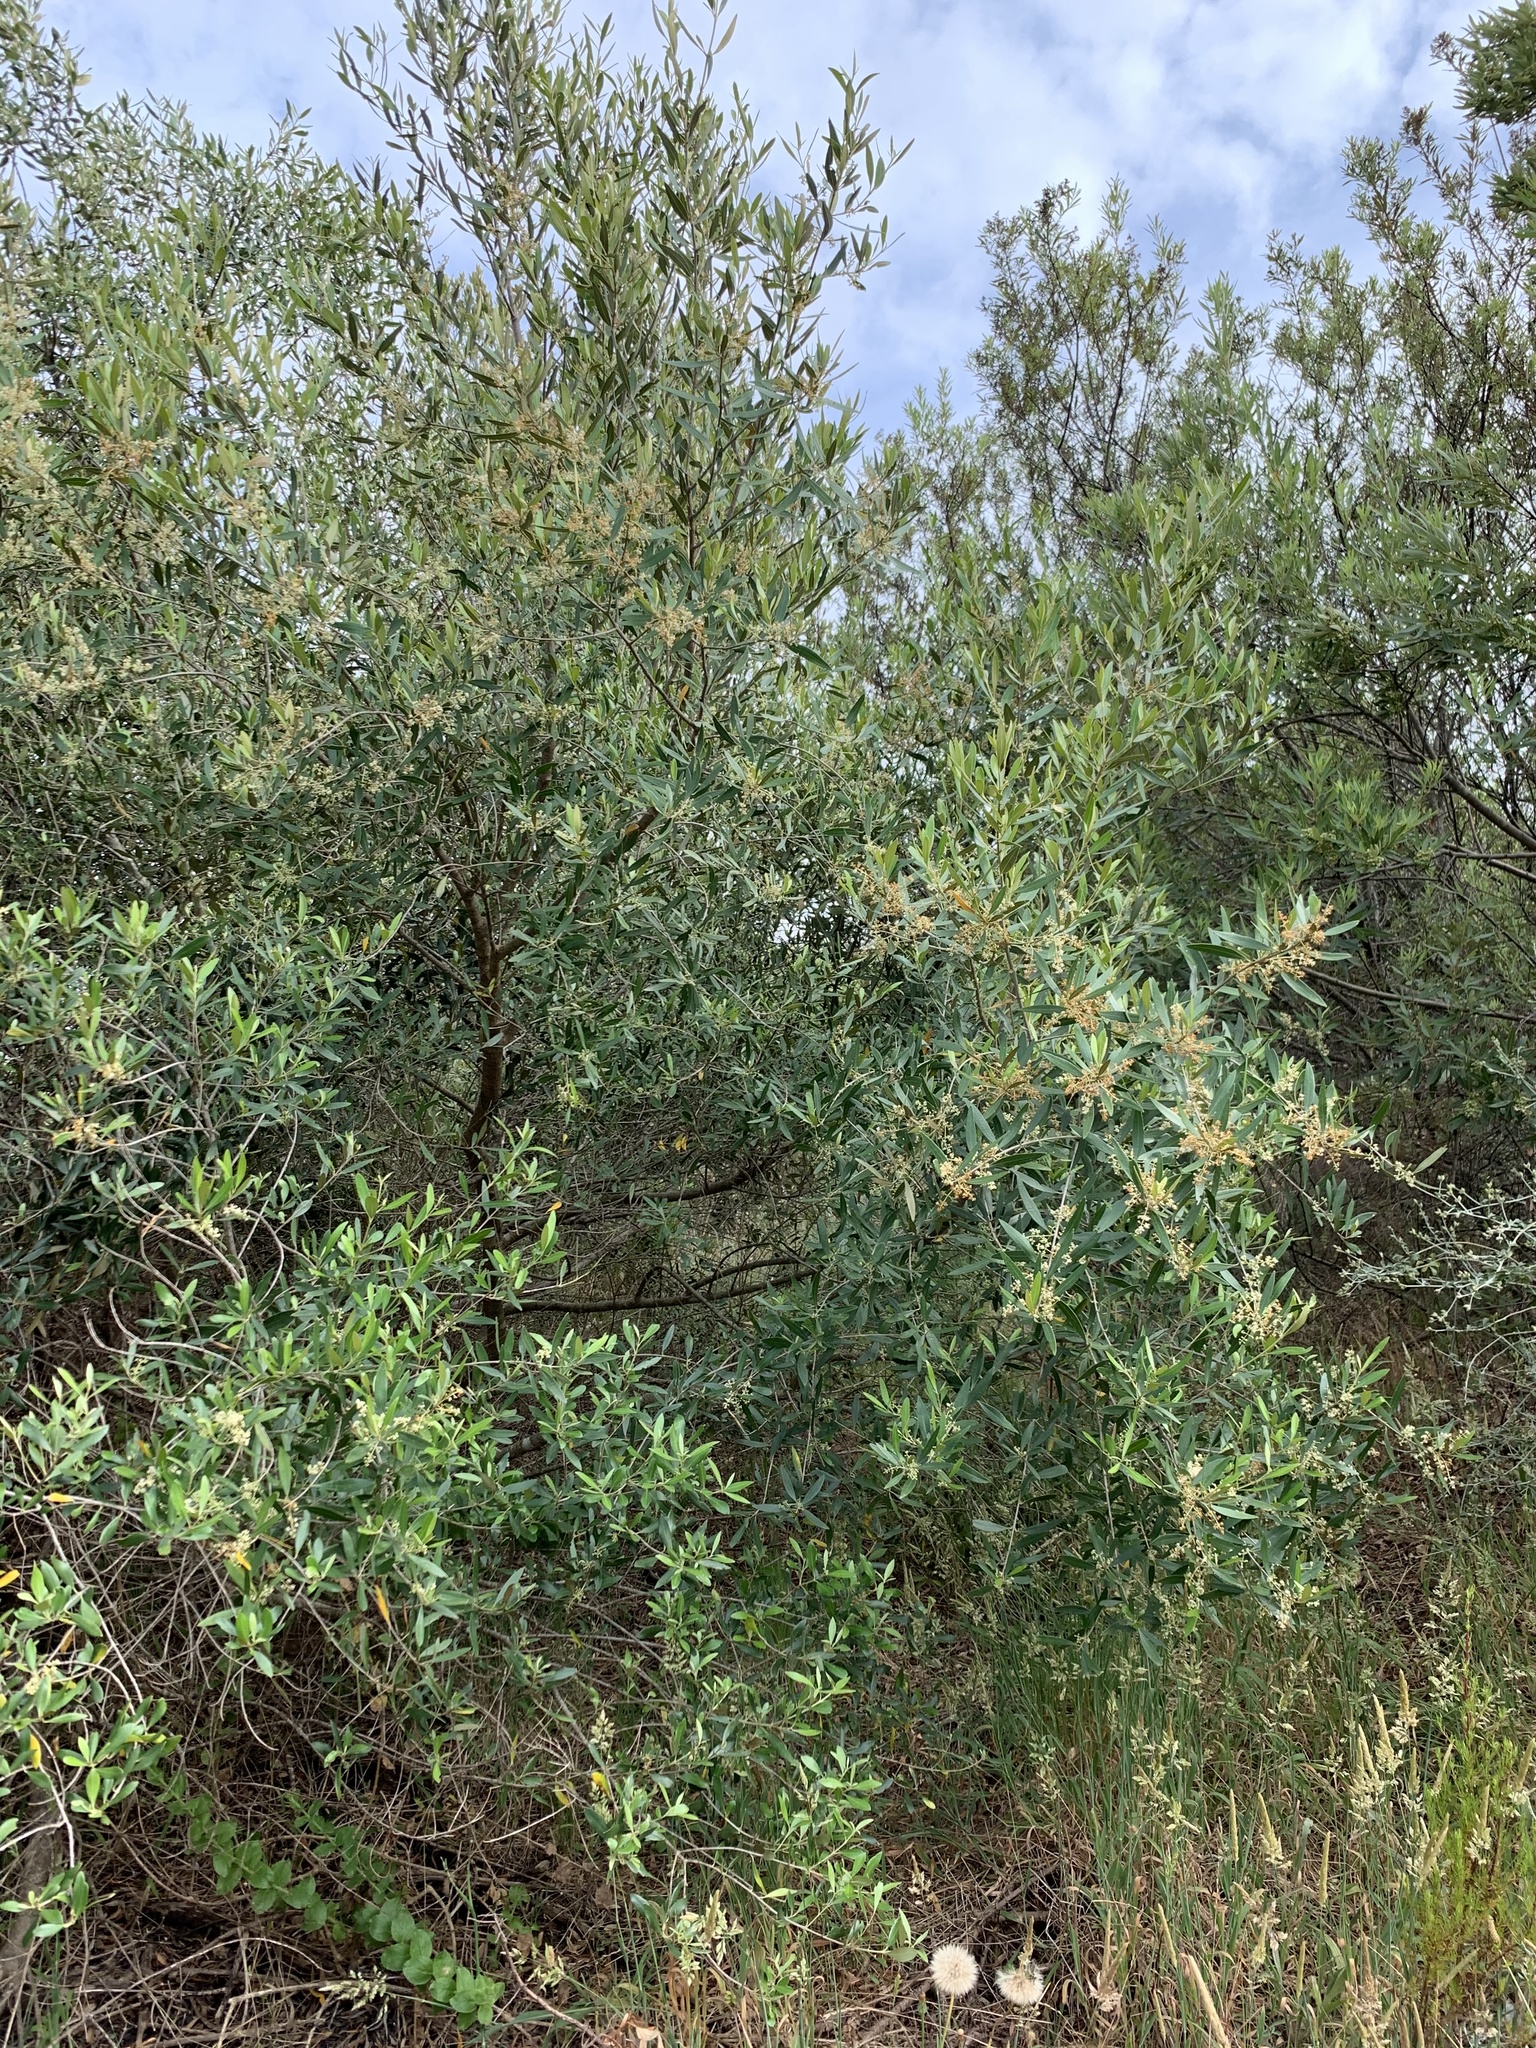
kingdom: Plantae
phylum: Tracheophyta
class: Magnoliopsida
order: Lamiales
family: Oleaceae
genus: Olea
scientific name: Olea europaea
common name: Olive
